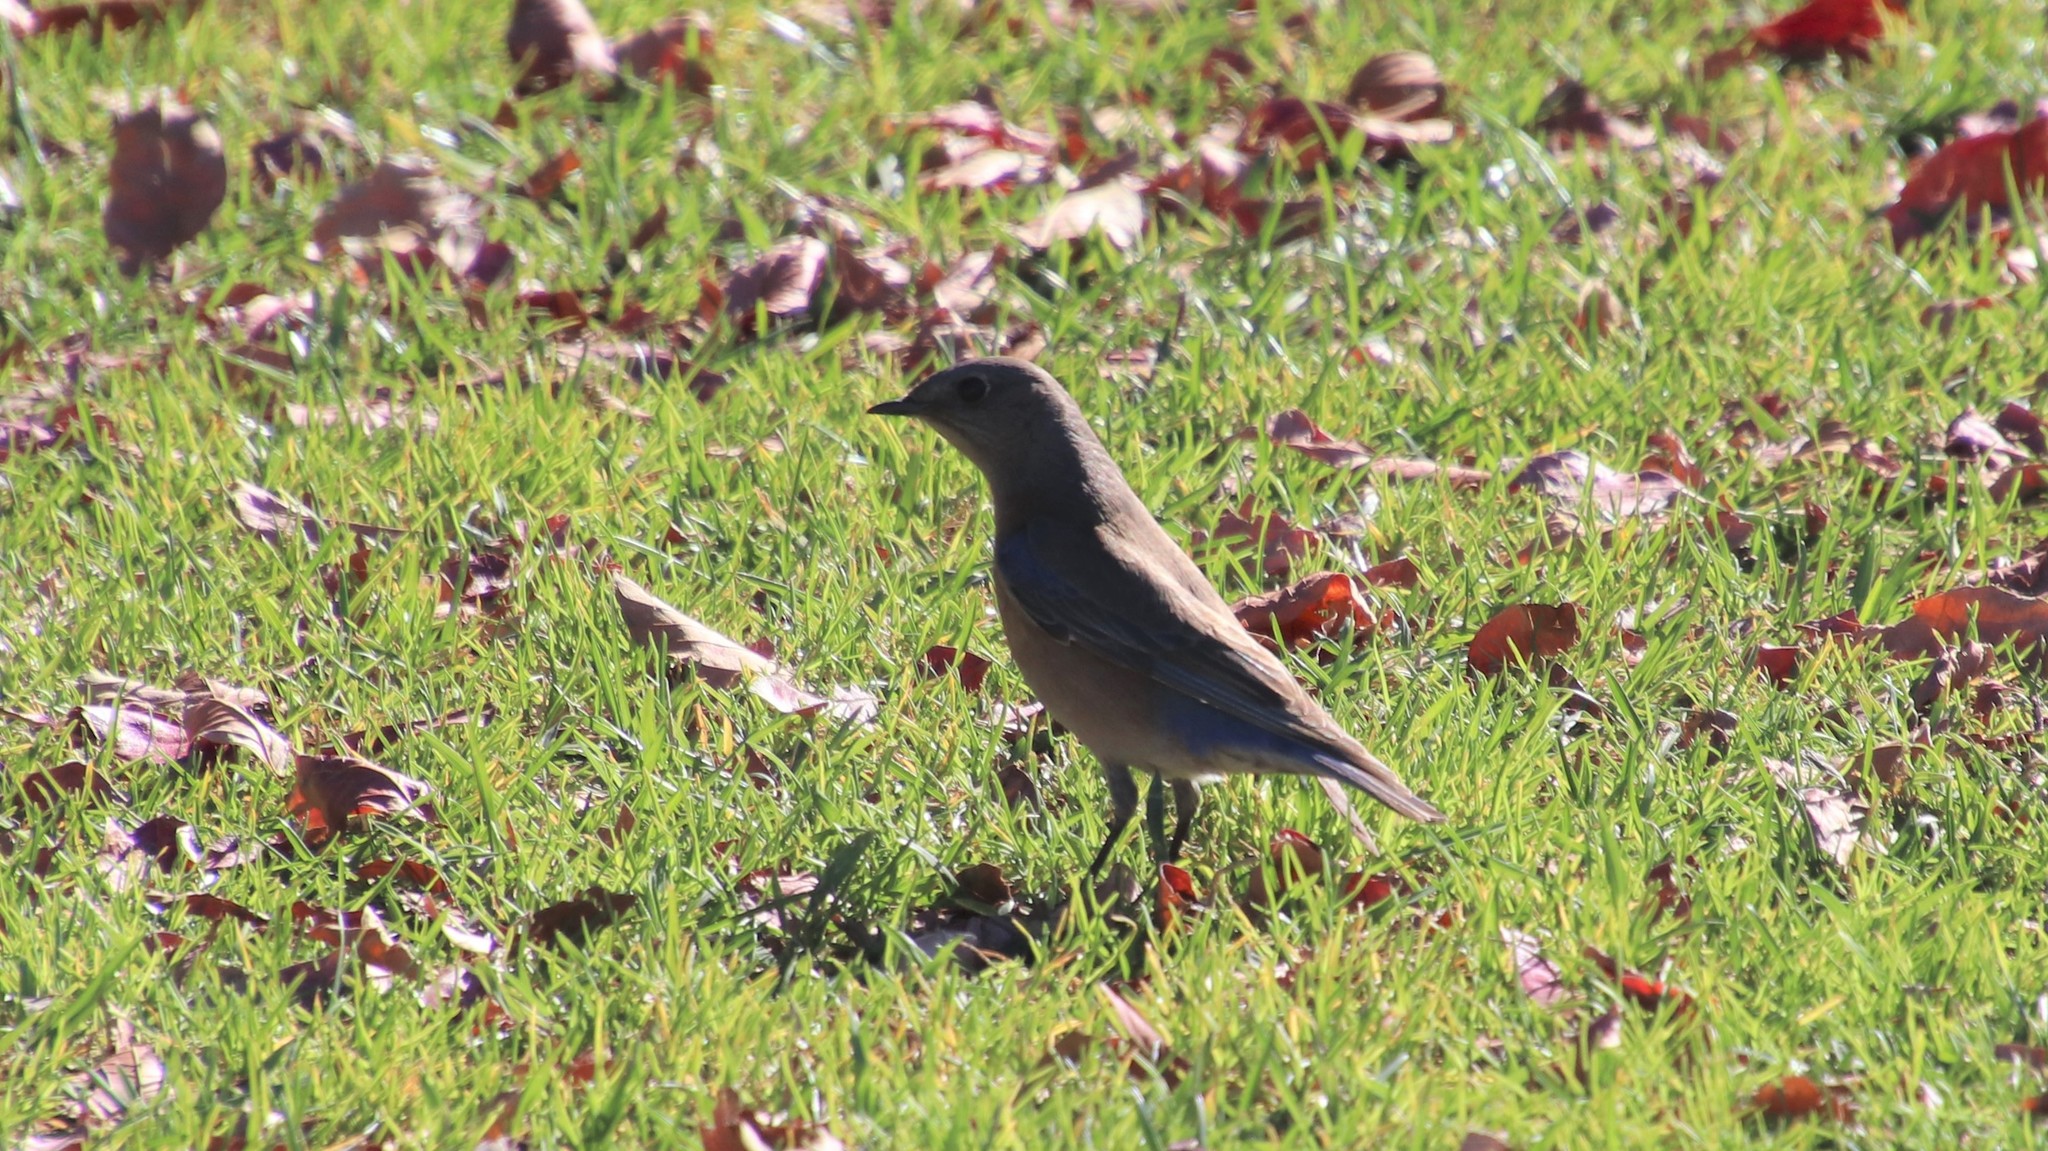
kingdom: Animalia
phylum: Chordata
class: Aves
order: Passeriformes
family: Turdidae
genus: Sialia
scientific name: Sialia mexicana
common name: Western bluebird
